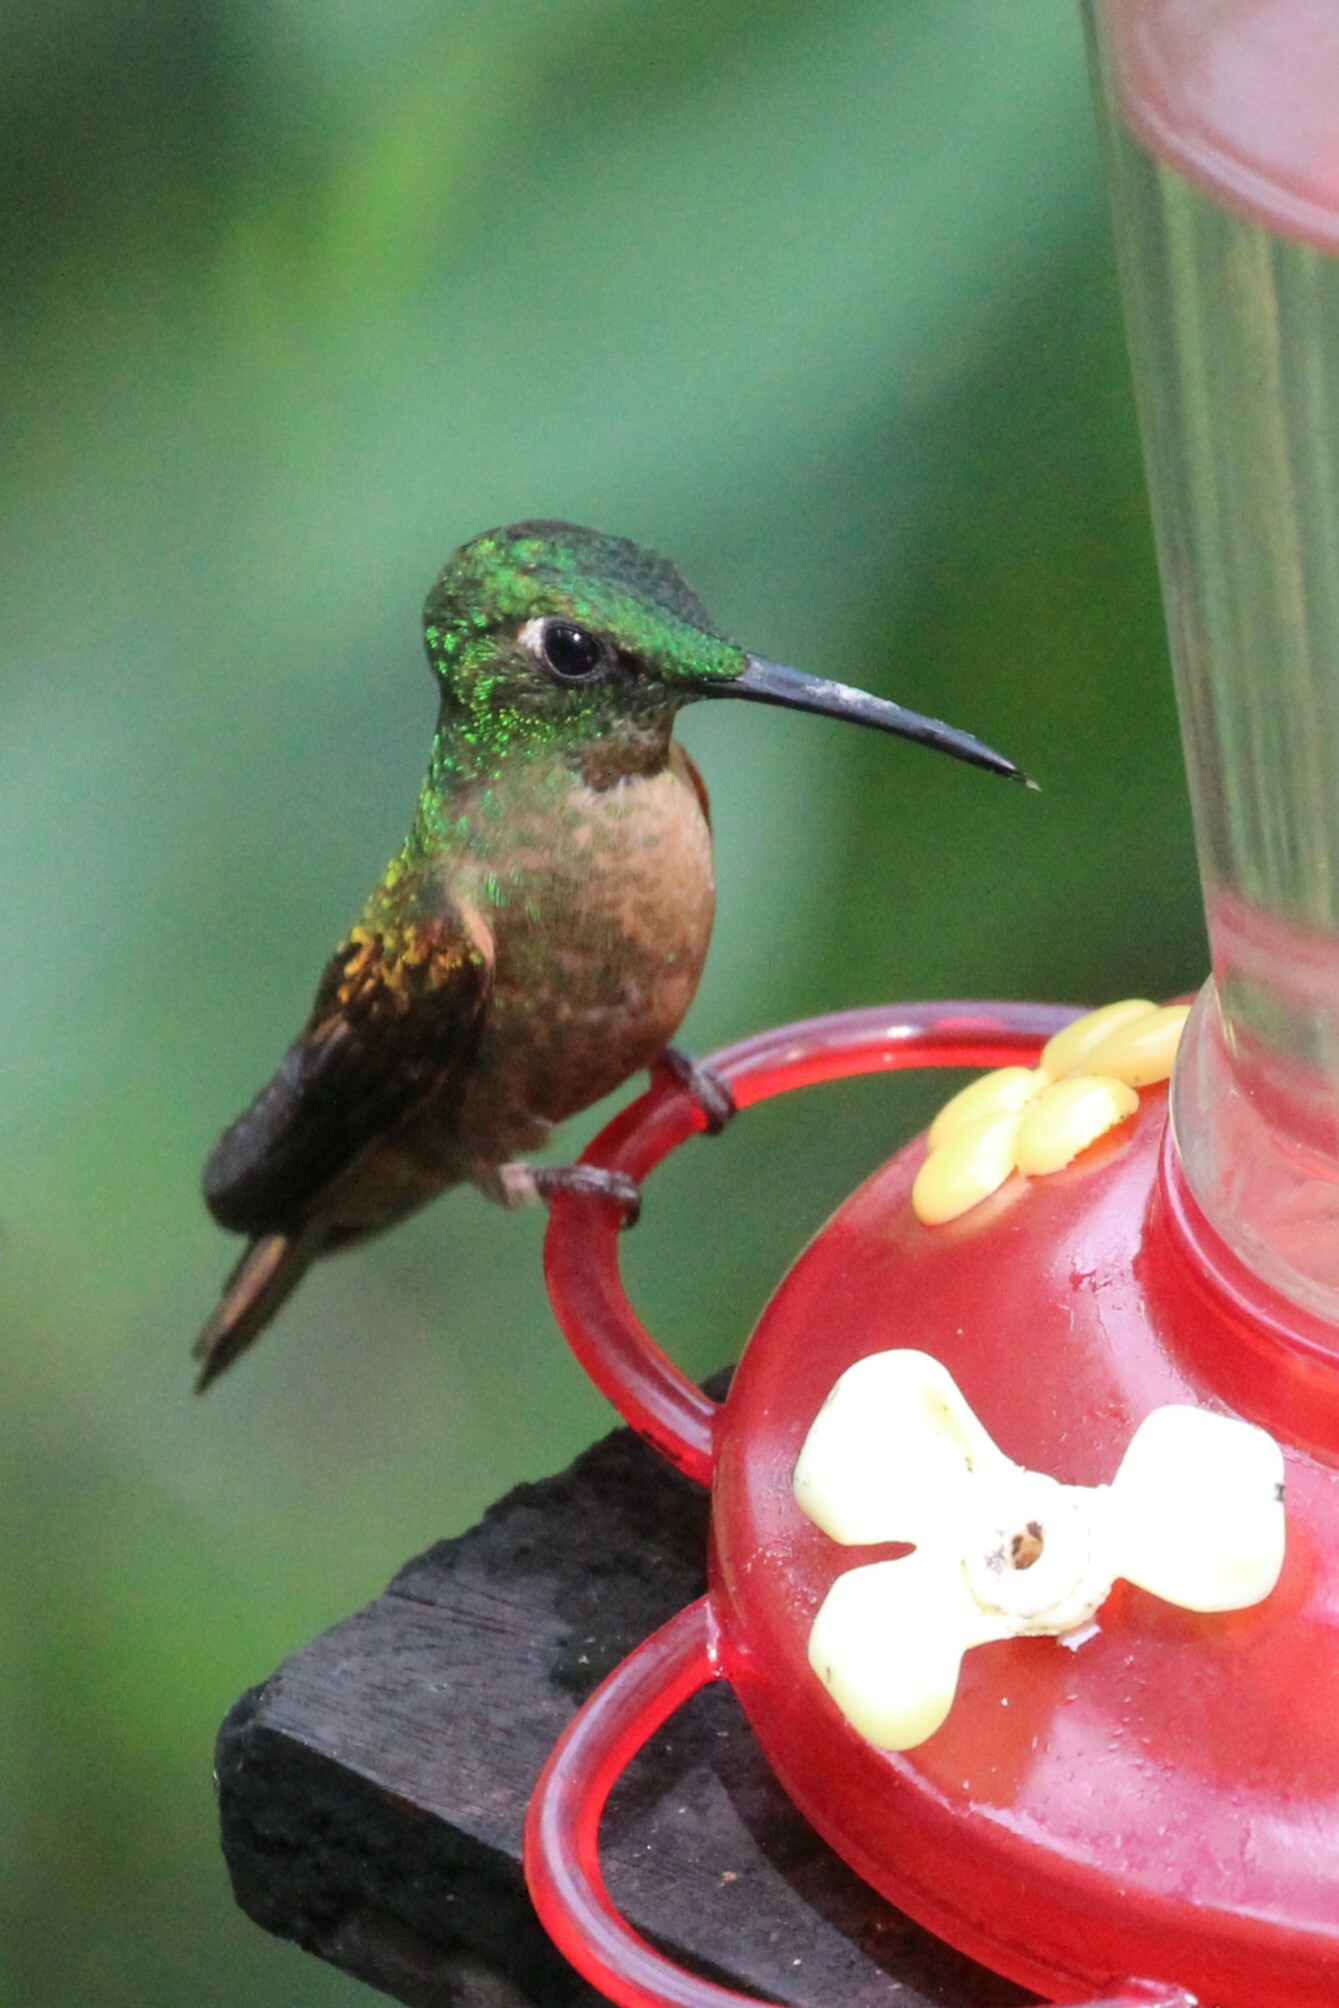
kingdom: Animalia
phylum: Chordata
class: Aves
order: Apodiformes
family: Trochilidae
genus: Heliodoxa
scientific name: Heliodoxa rubinoides
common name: Fawn-breasted brilliant
